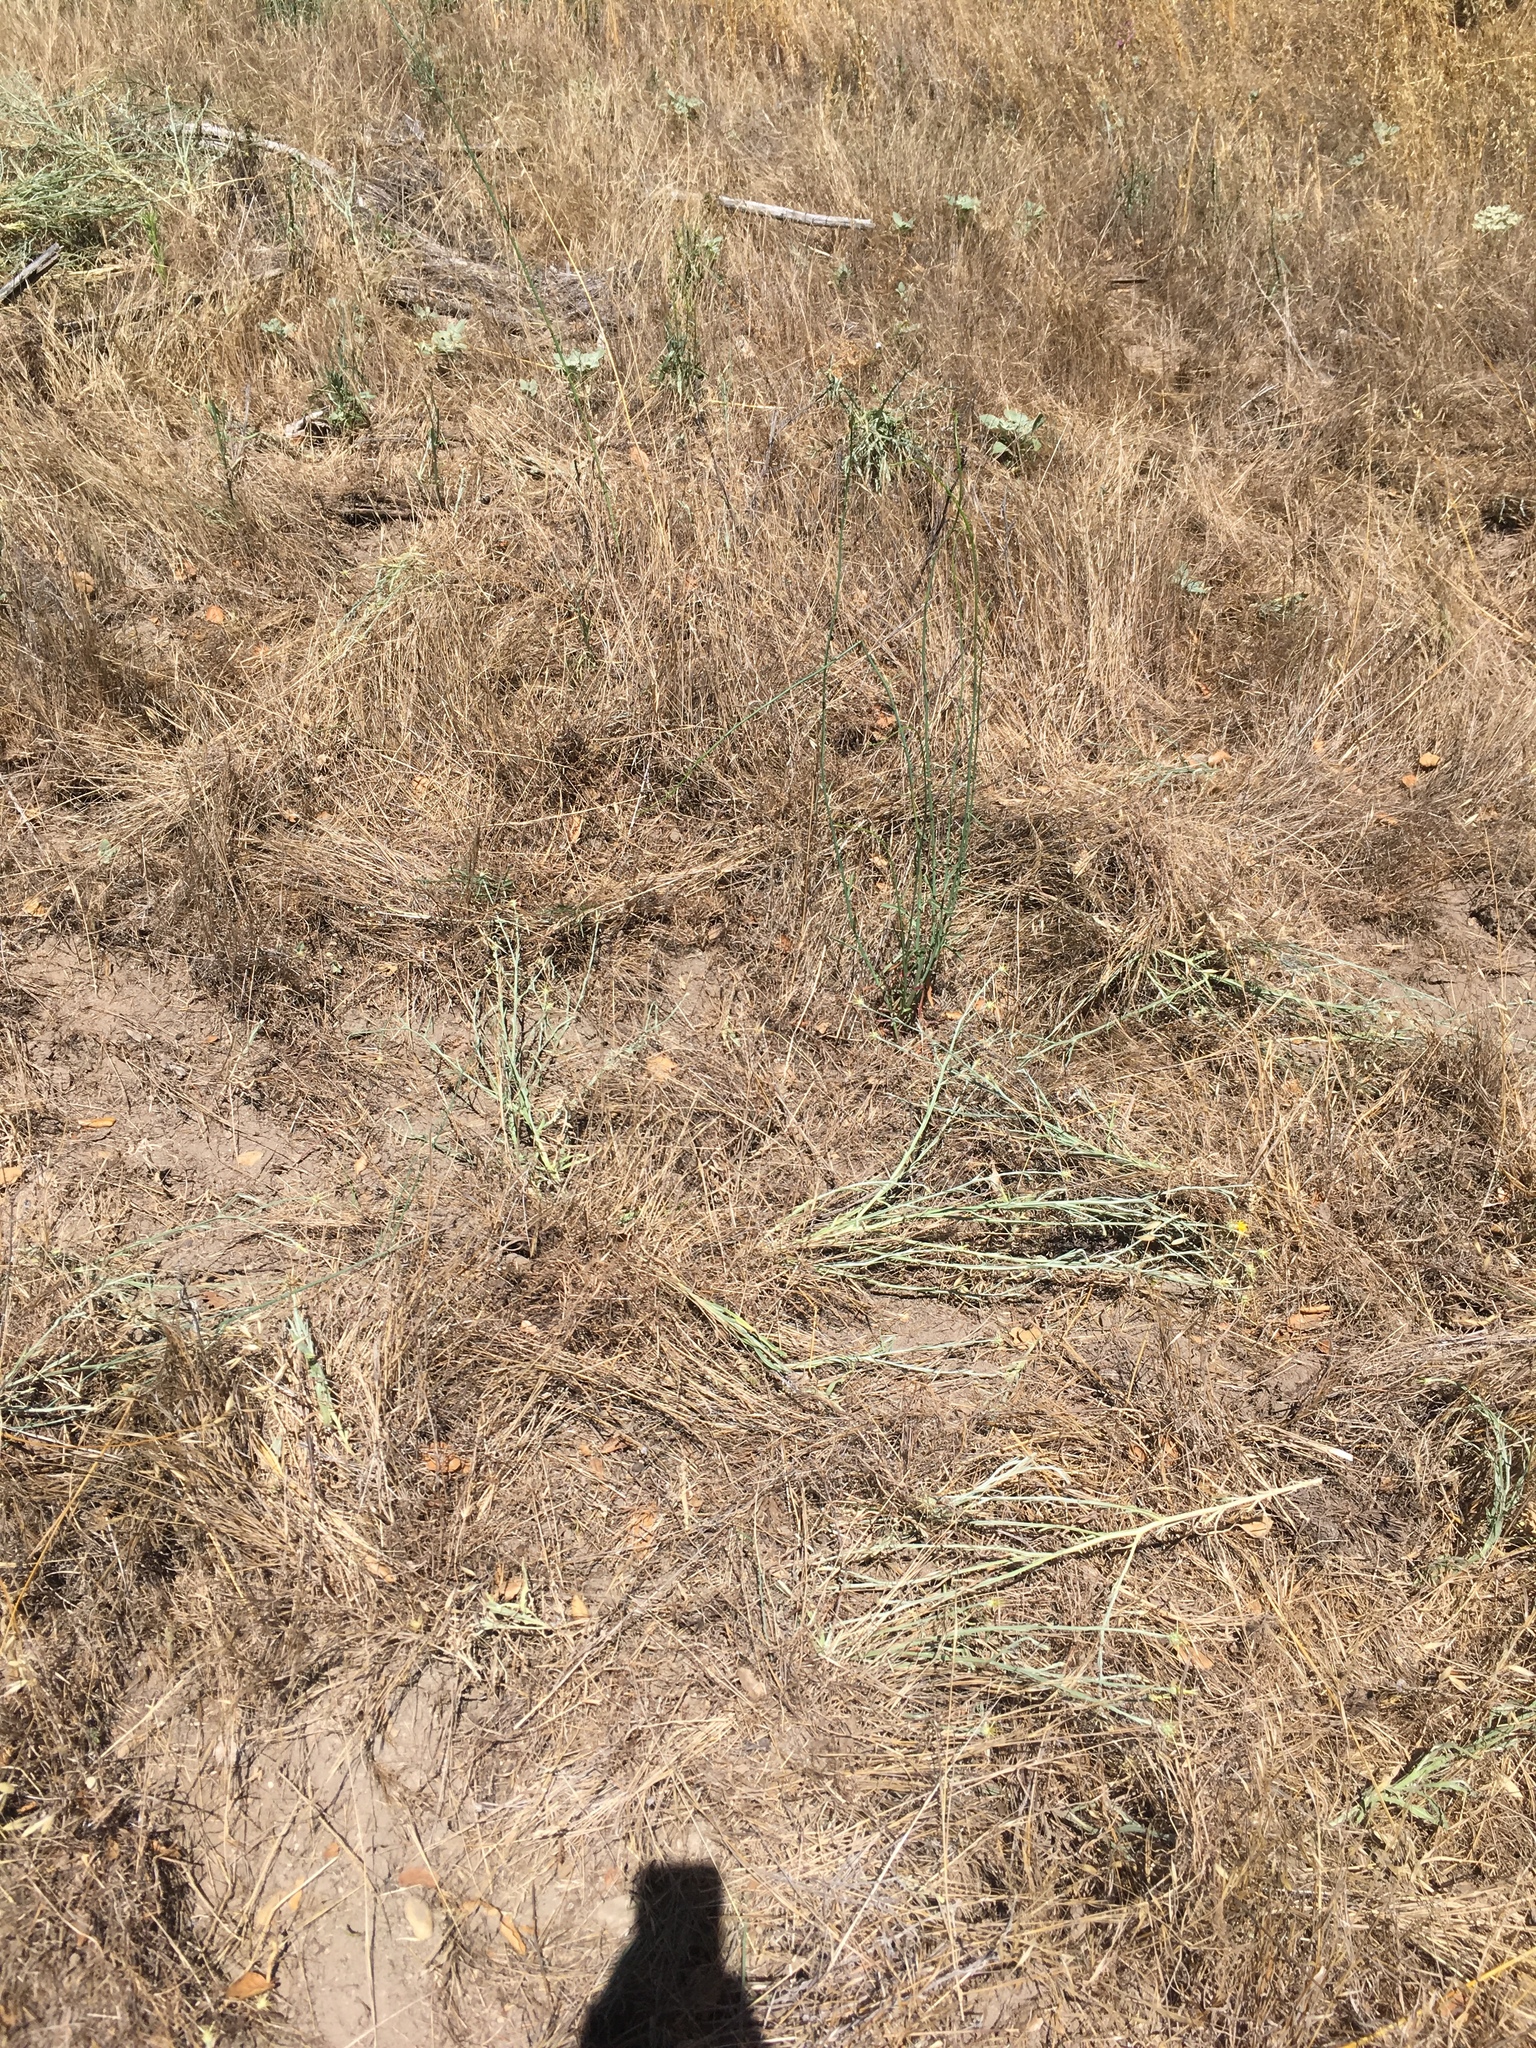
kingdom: Plantae
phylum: Tracheophyta
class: Magnoliopsida
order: Asterales
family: Asteraceae
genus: Centaurea
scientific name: Centaurea solstitialis
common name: Yellow star-thistle
